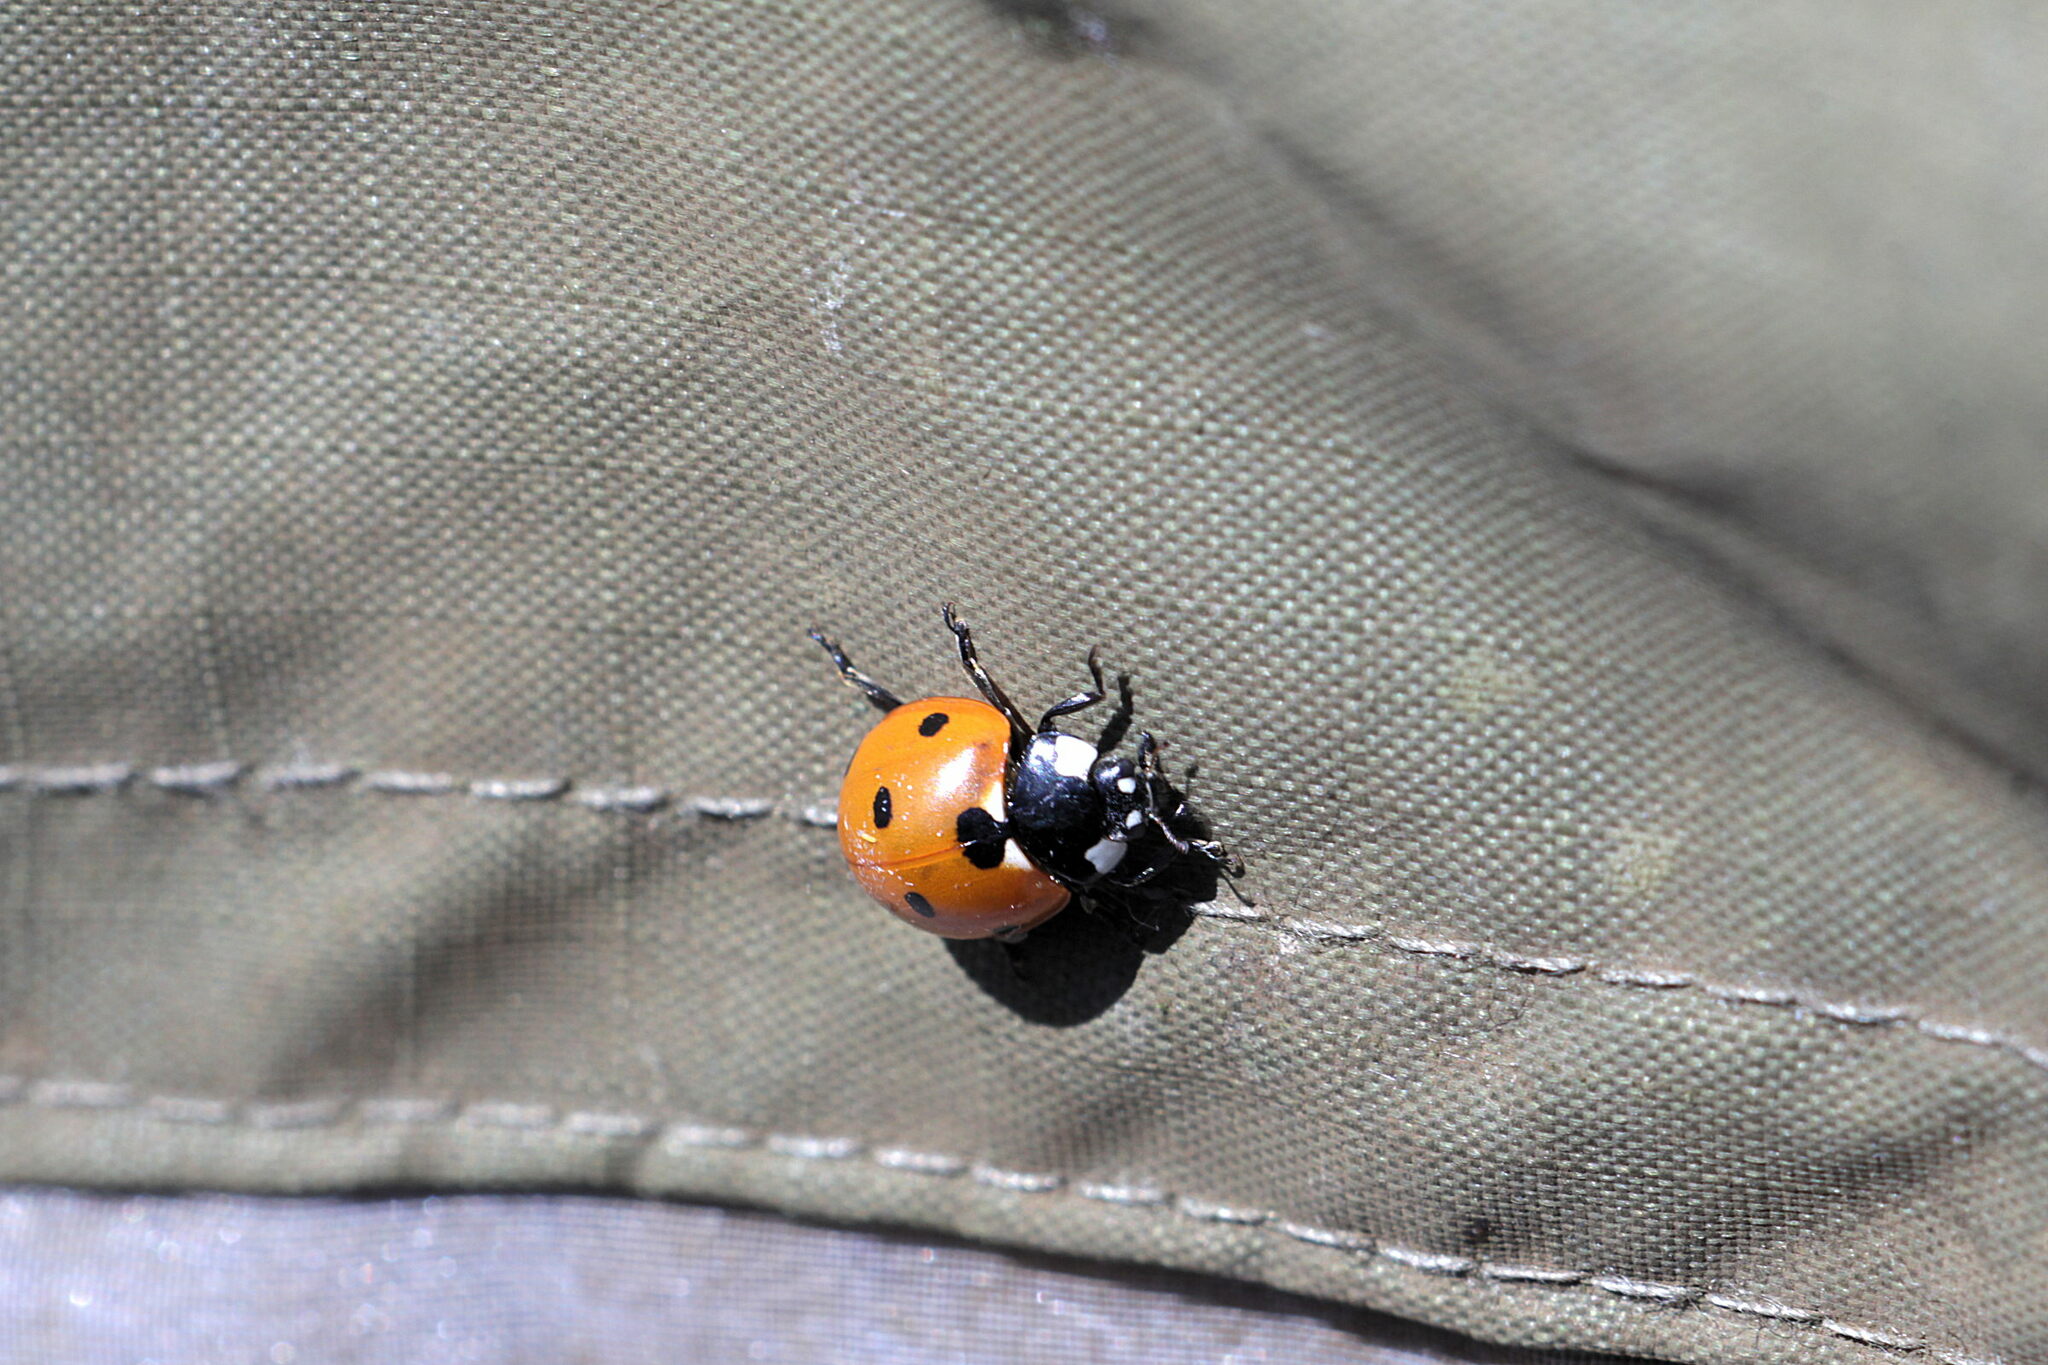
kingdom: Animalia
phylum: Arthropoda
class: Insecta
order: Coleoptera
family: Coccinellidae
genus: Coccinella
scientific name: Coccinella septempunctata
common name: Sevenspotted lady beetle
